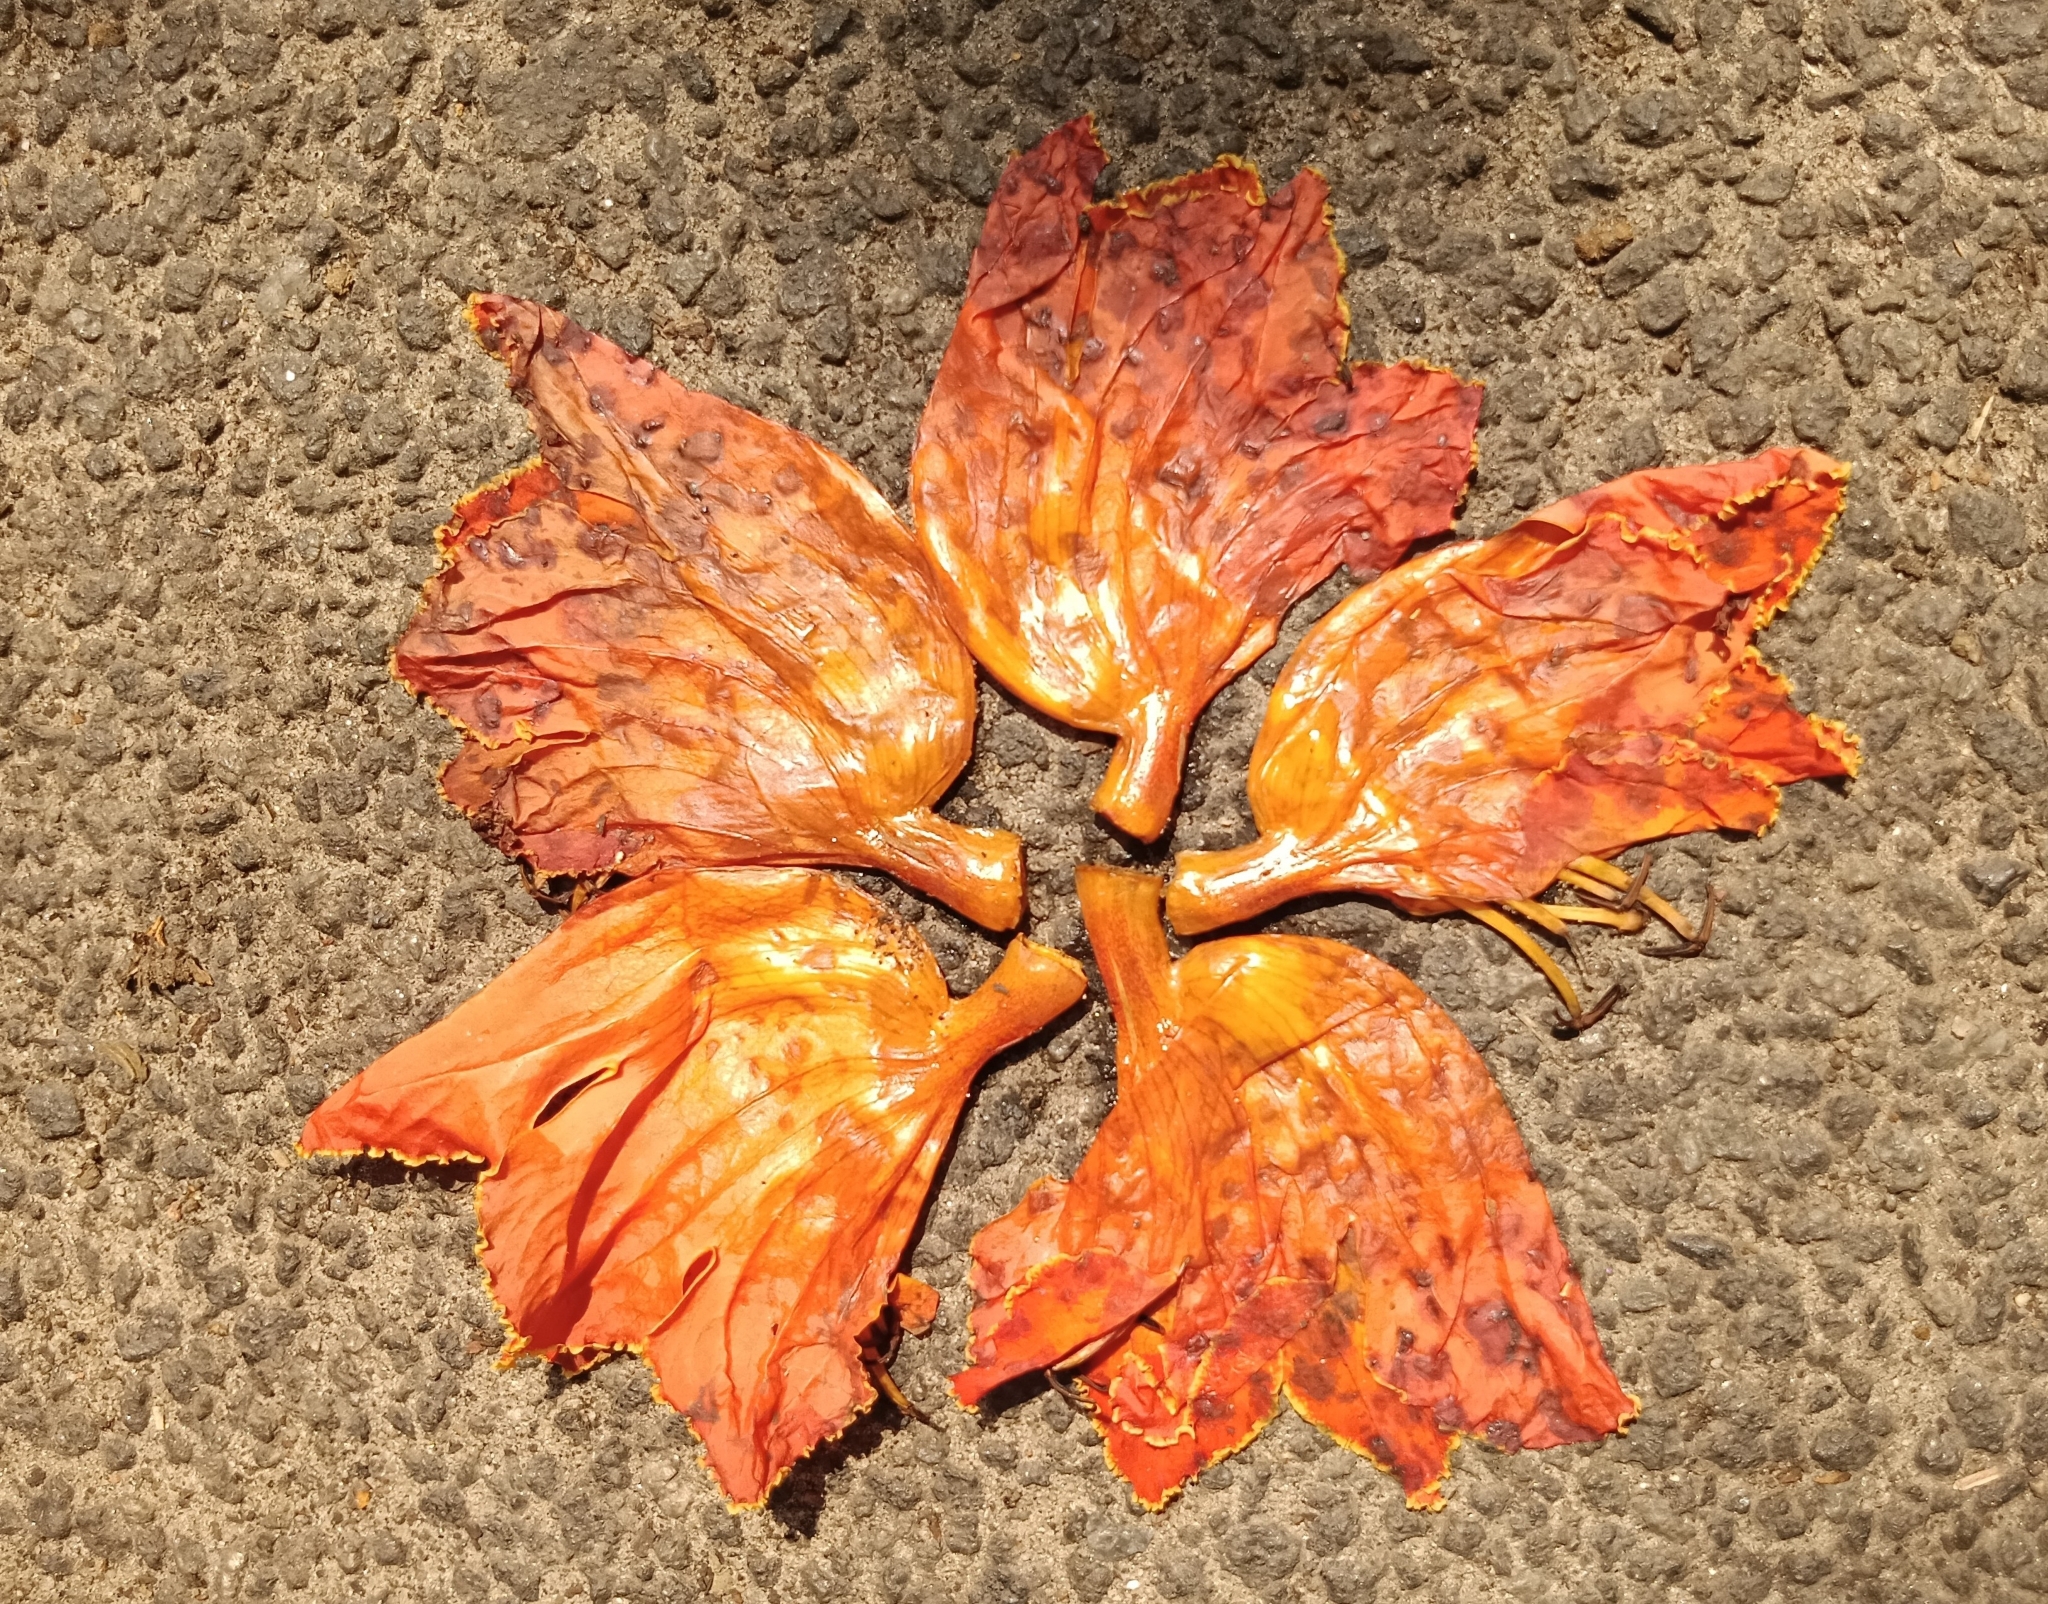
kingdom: Plantae
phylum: Tracheophyta
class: Magnoliopsida
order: Lamiales
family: Bignoniaceae
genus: Spathodea
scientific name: Spathodea campanulata
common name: African tuliptree
